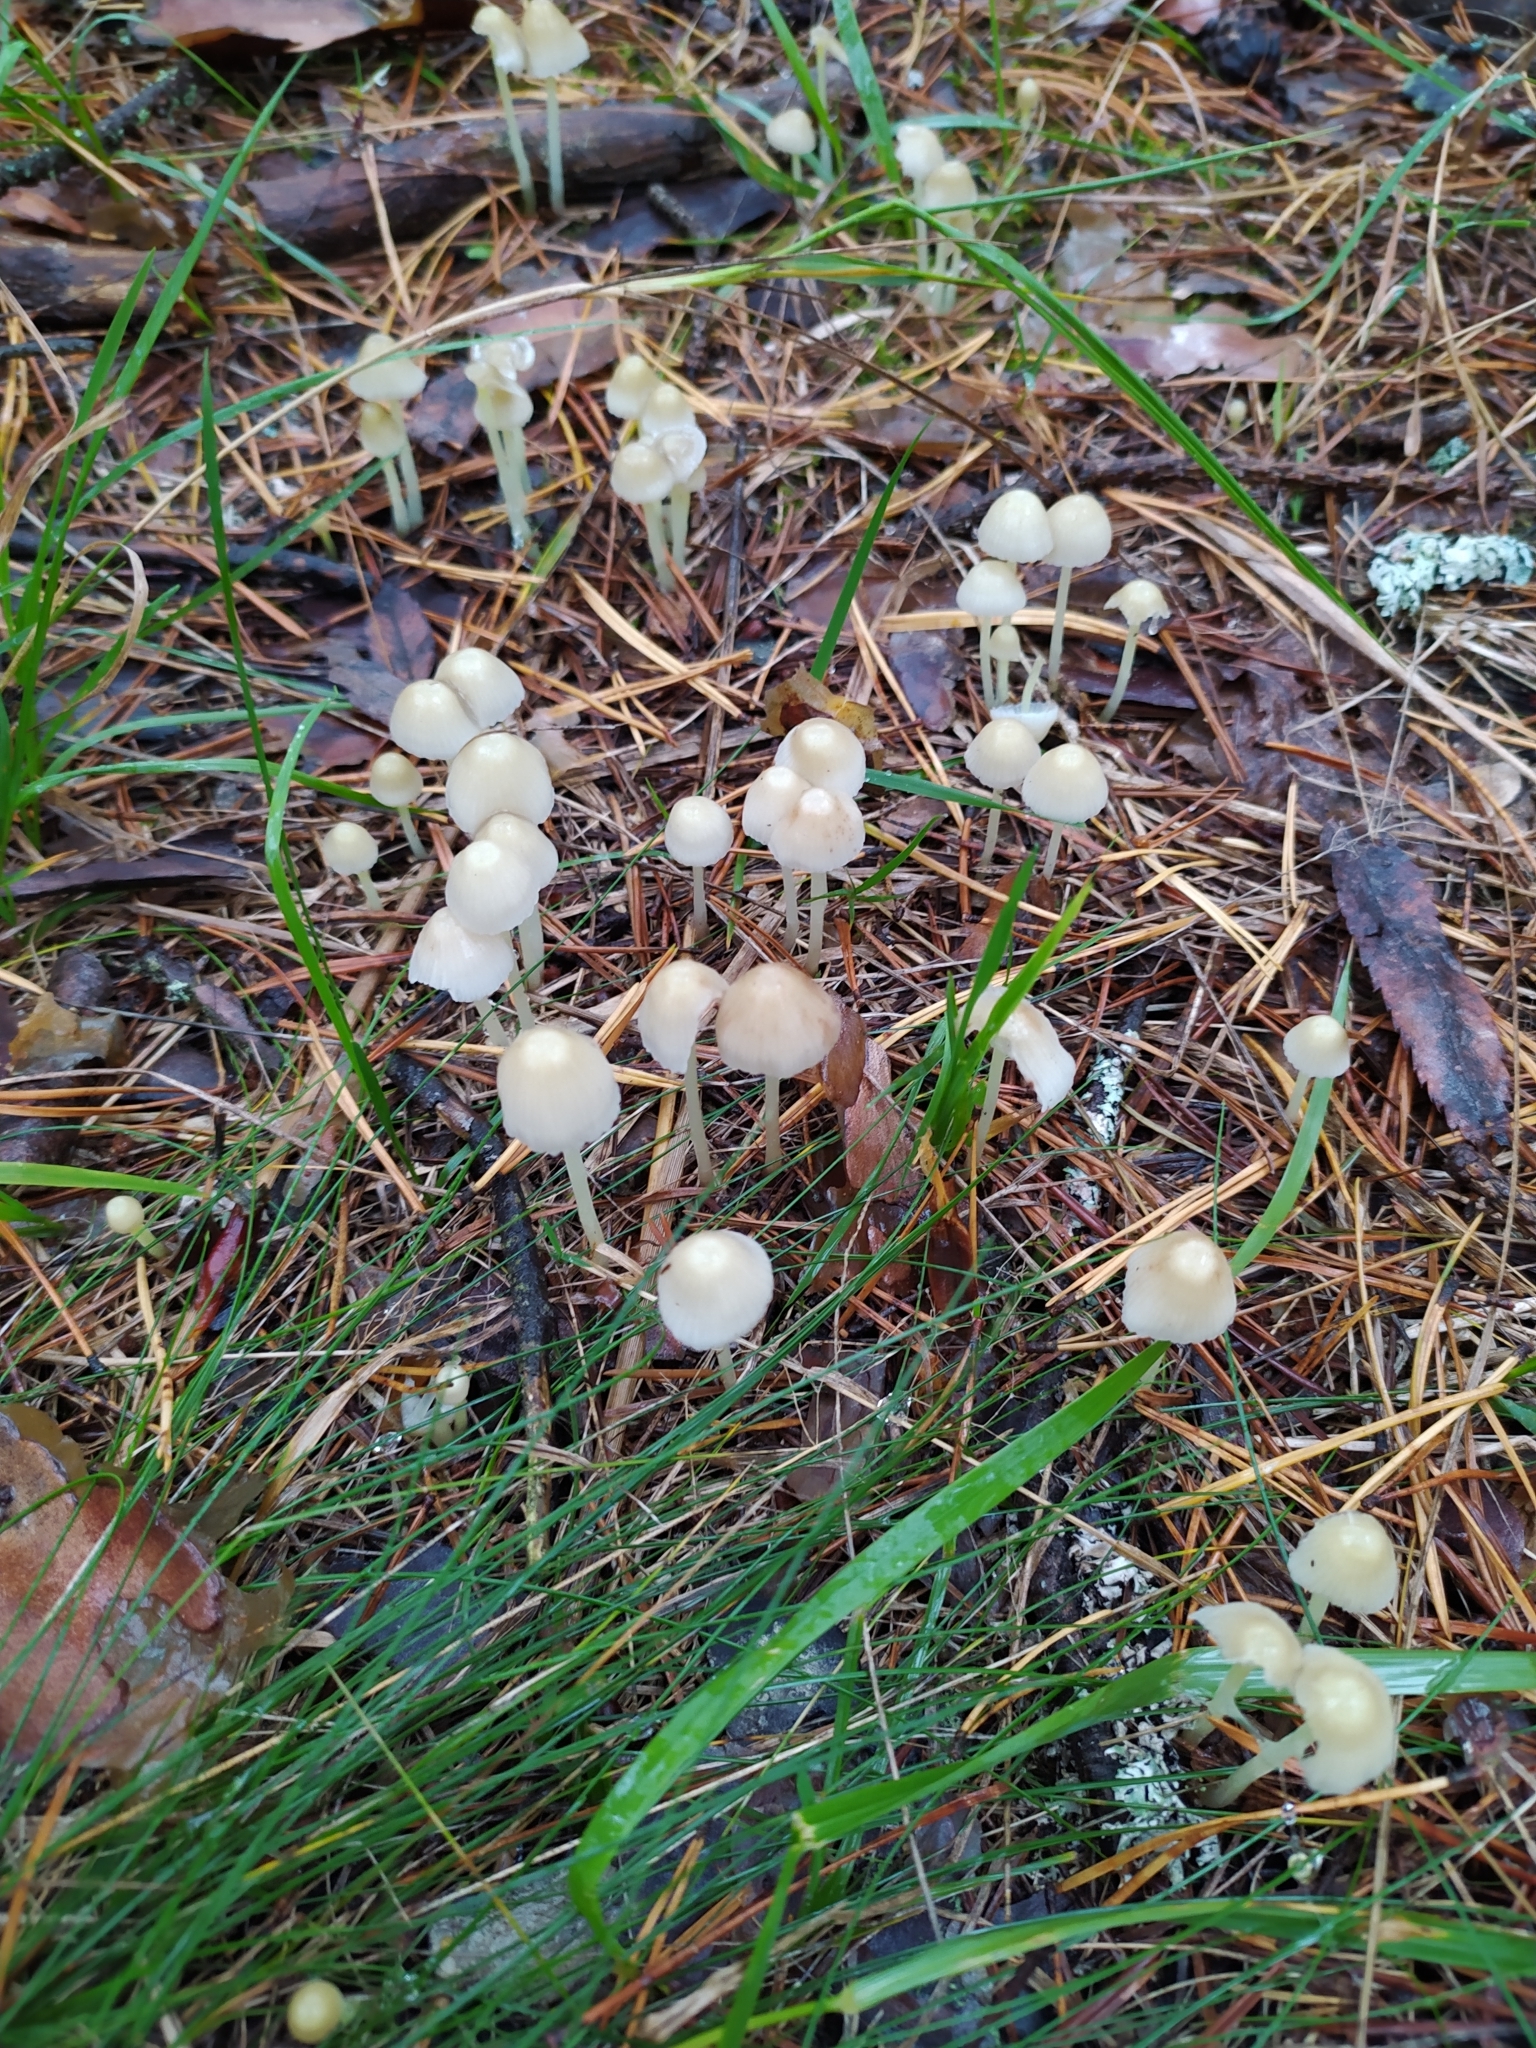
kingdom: Fungi
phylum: Basidiomycota
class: Agaricomycetes
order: Agaricales
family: Mycenaceae
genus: Mycena
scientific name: Mycena epipterygia
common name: Yellowleg bonnet
